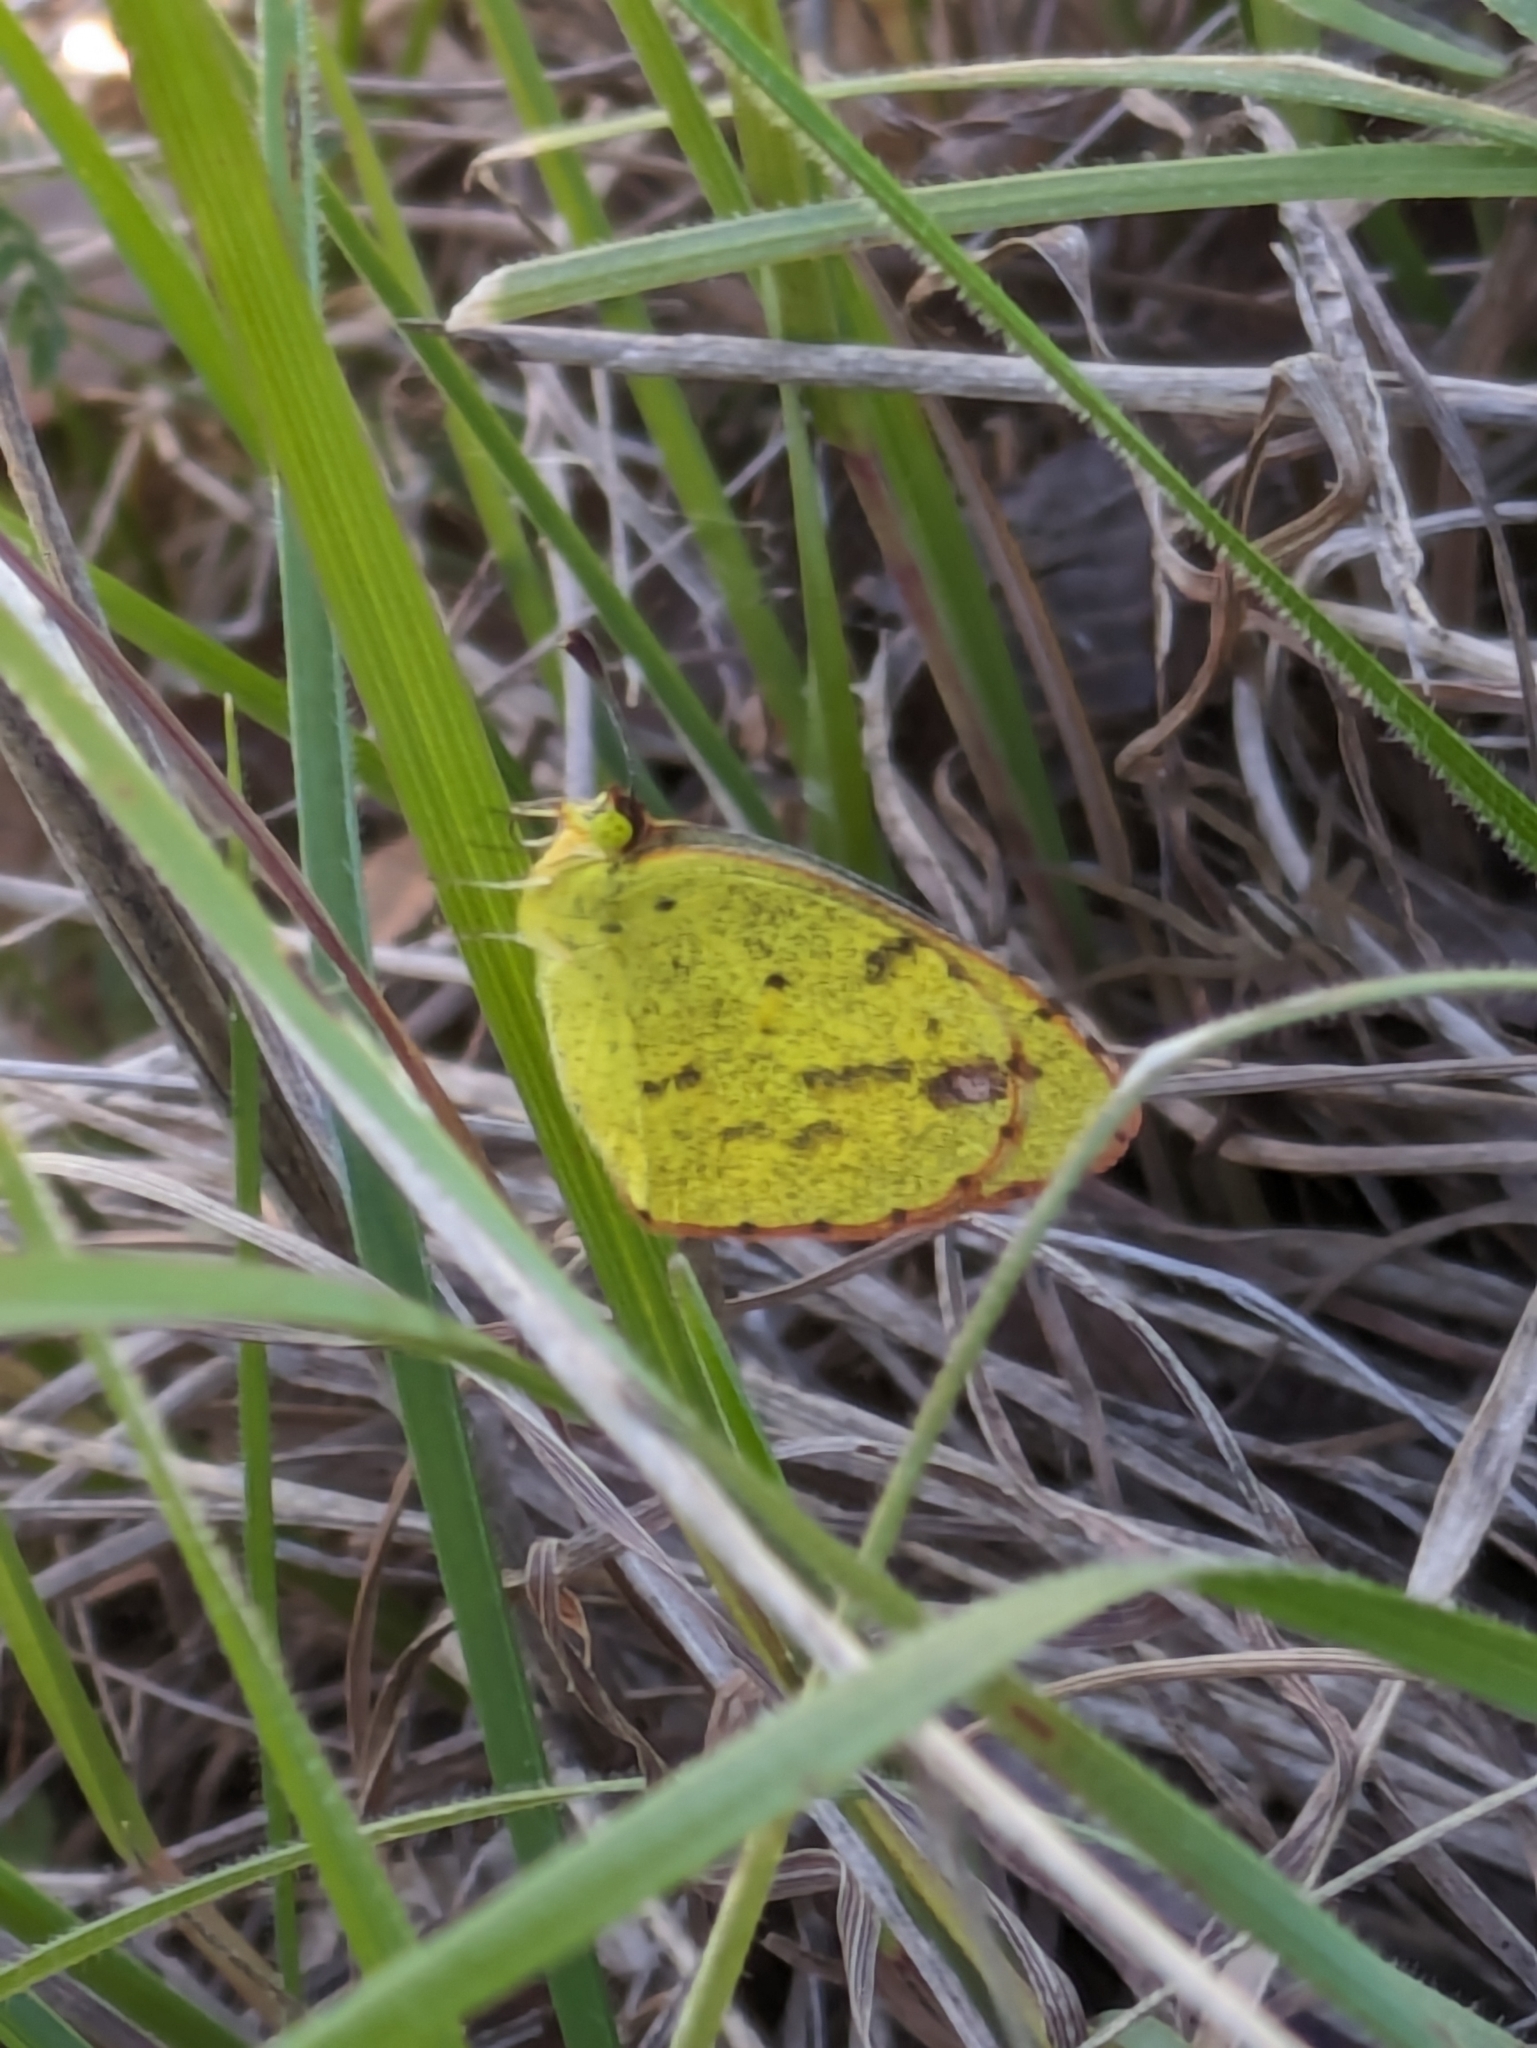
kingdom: Animalia
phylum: Arthropoda
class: Insecta
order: Lepidoptera
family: Pieridae
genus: Pyrisitia
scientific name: Pyrisitia lisa
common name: Little yellow
